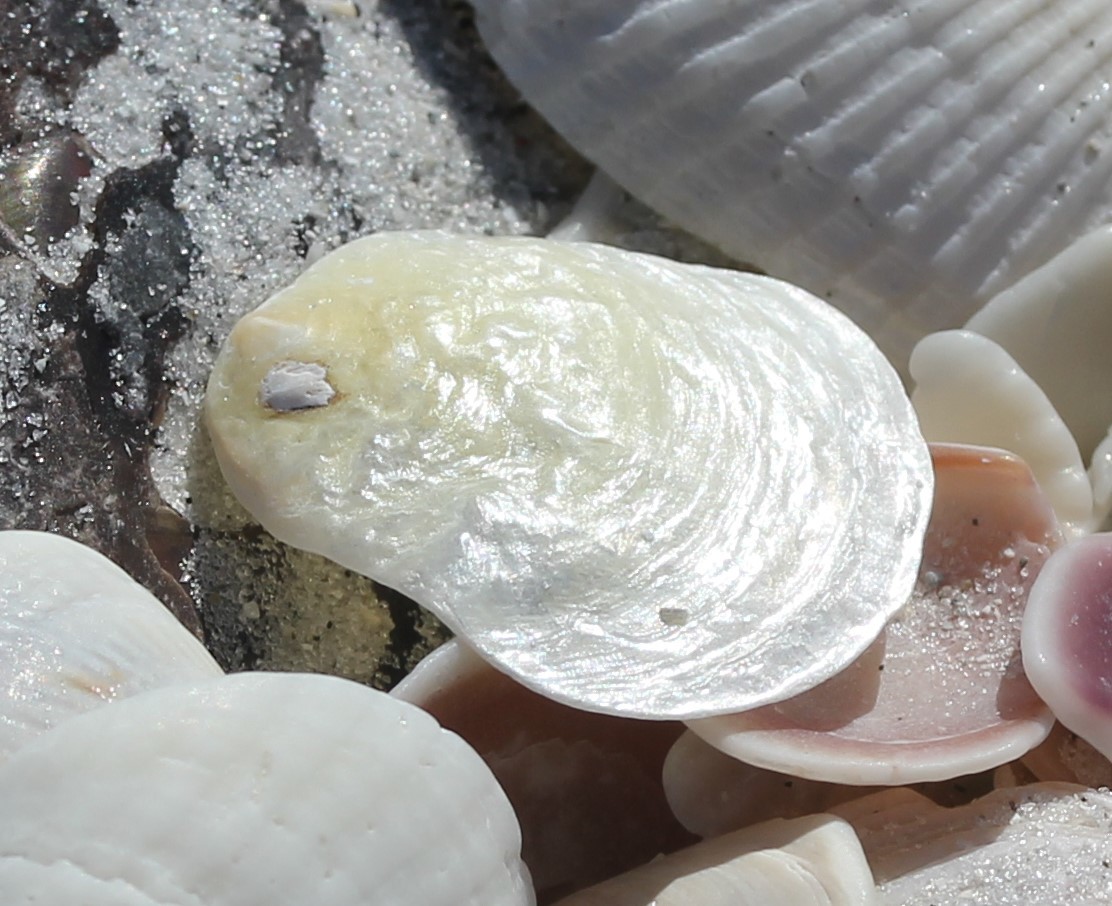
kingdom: Animalia
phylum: Mollusca
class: Bivalvia
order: Pectinida
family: Anomiidae
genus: Anomia
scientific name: Anomia simplex
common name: Common jingle shell
